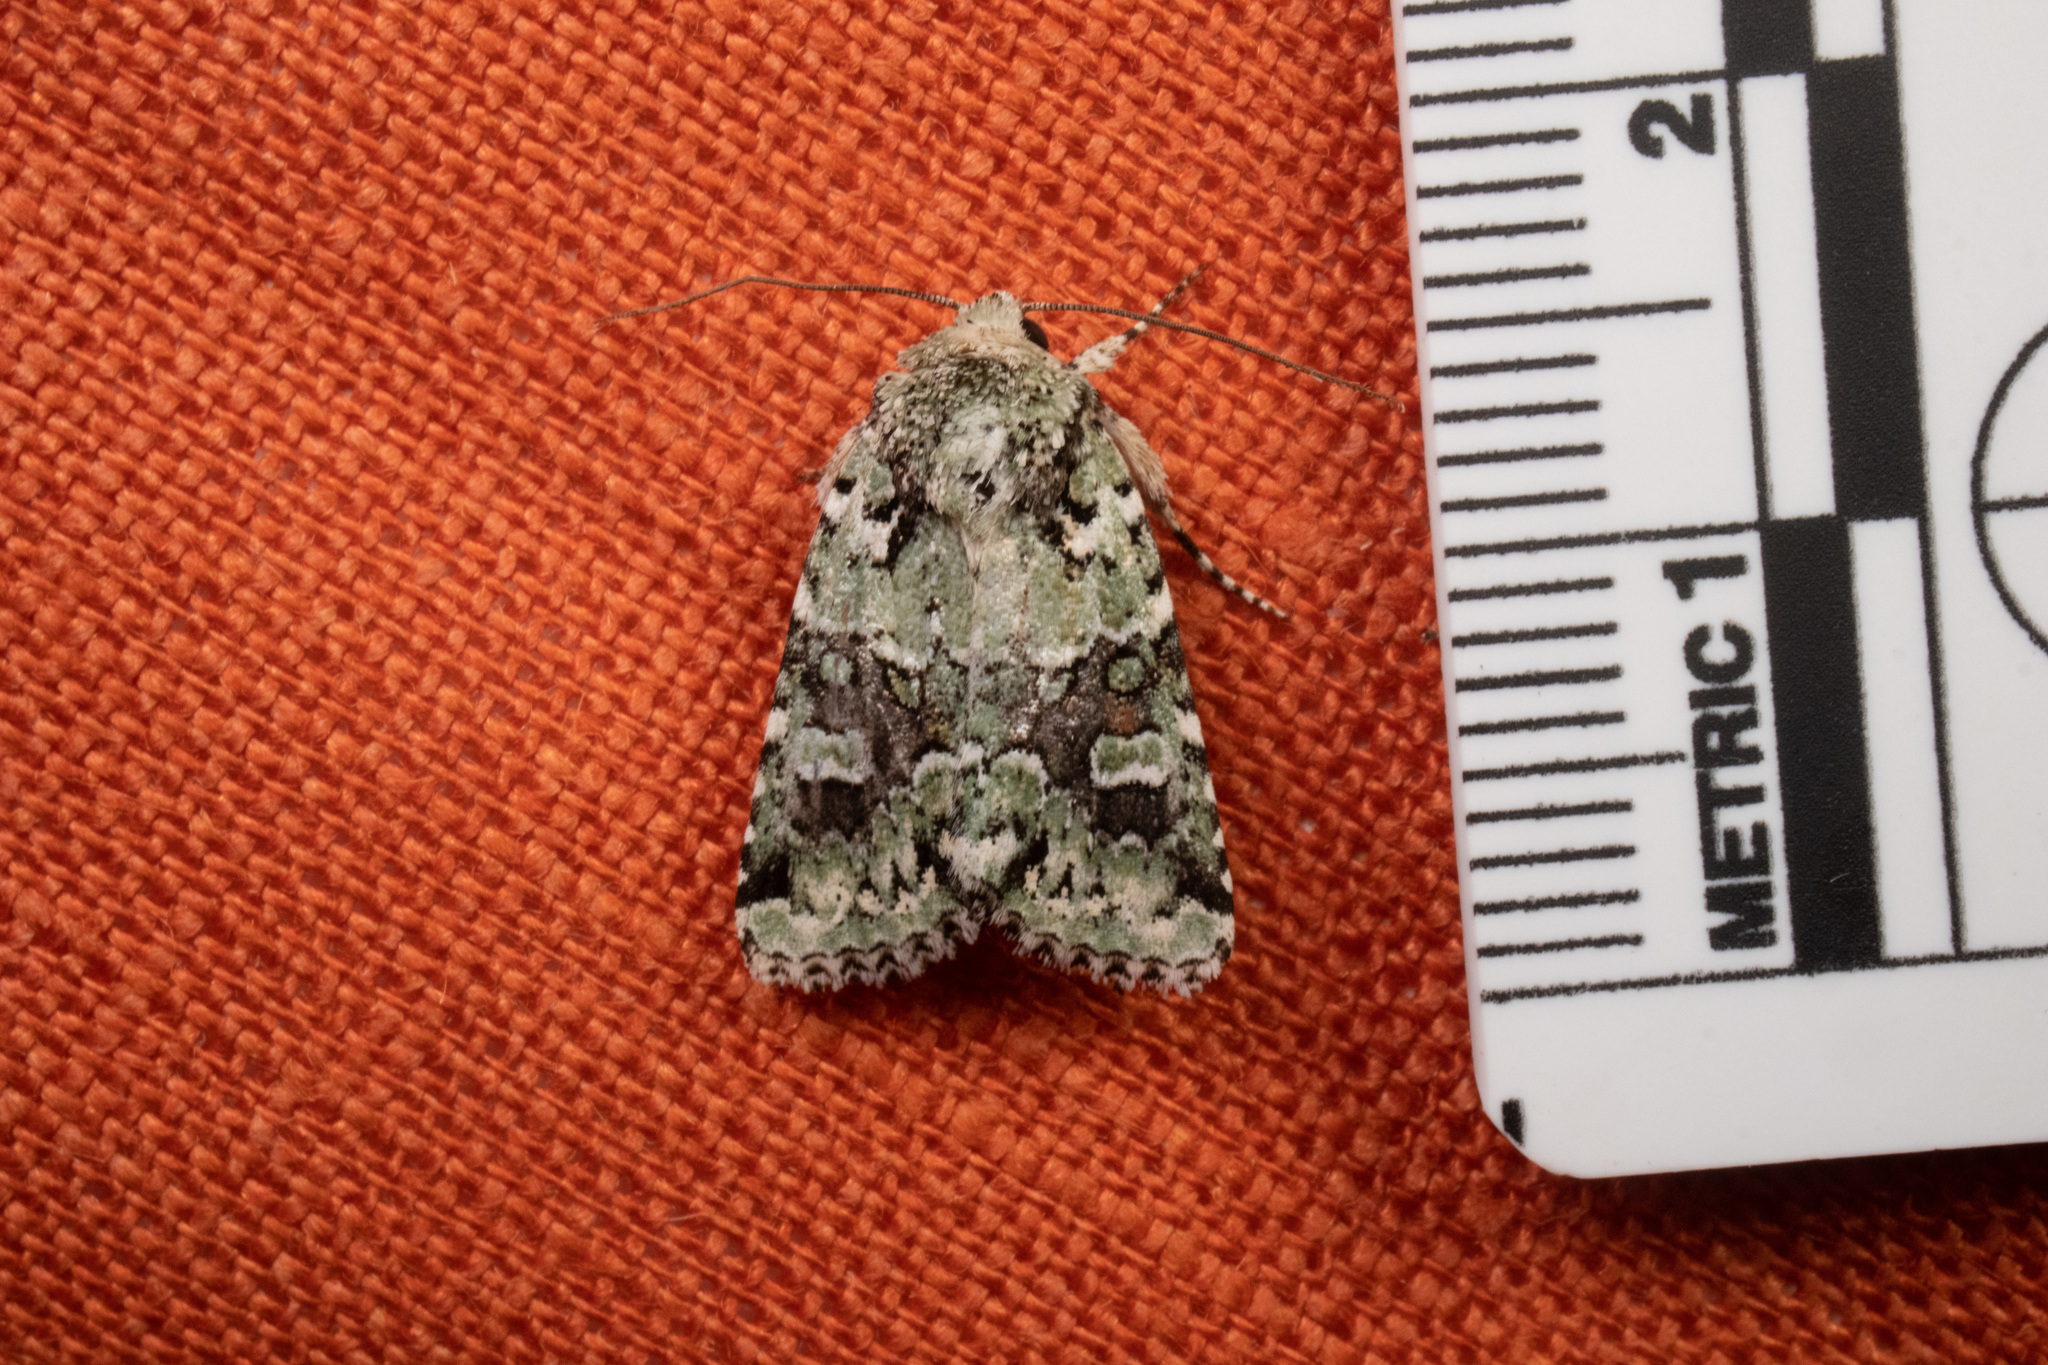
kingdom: Animalia
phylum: Arthropoda
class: Insecta
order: Lepidoptera
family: Noctuidae
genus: Lacinipolia
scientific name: Lacinipolia laudabilis
